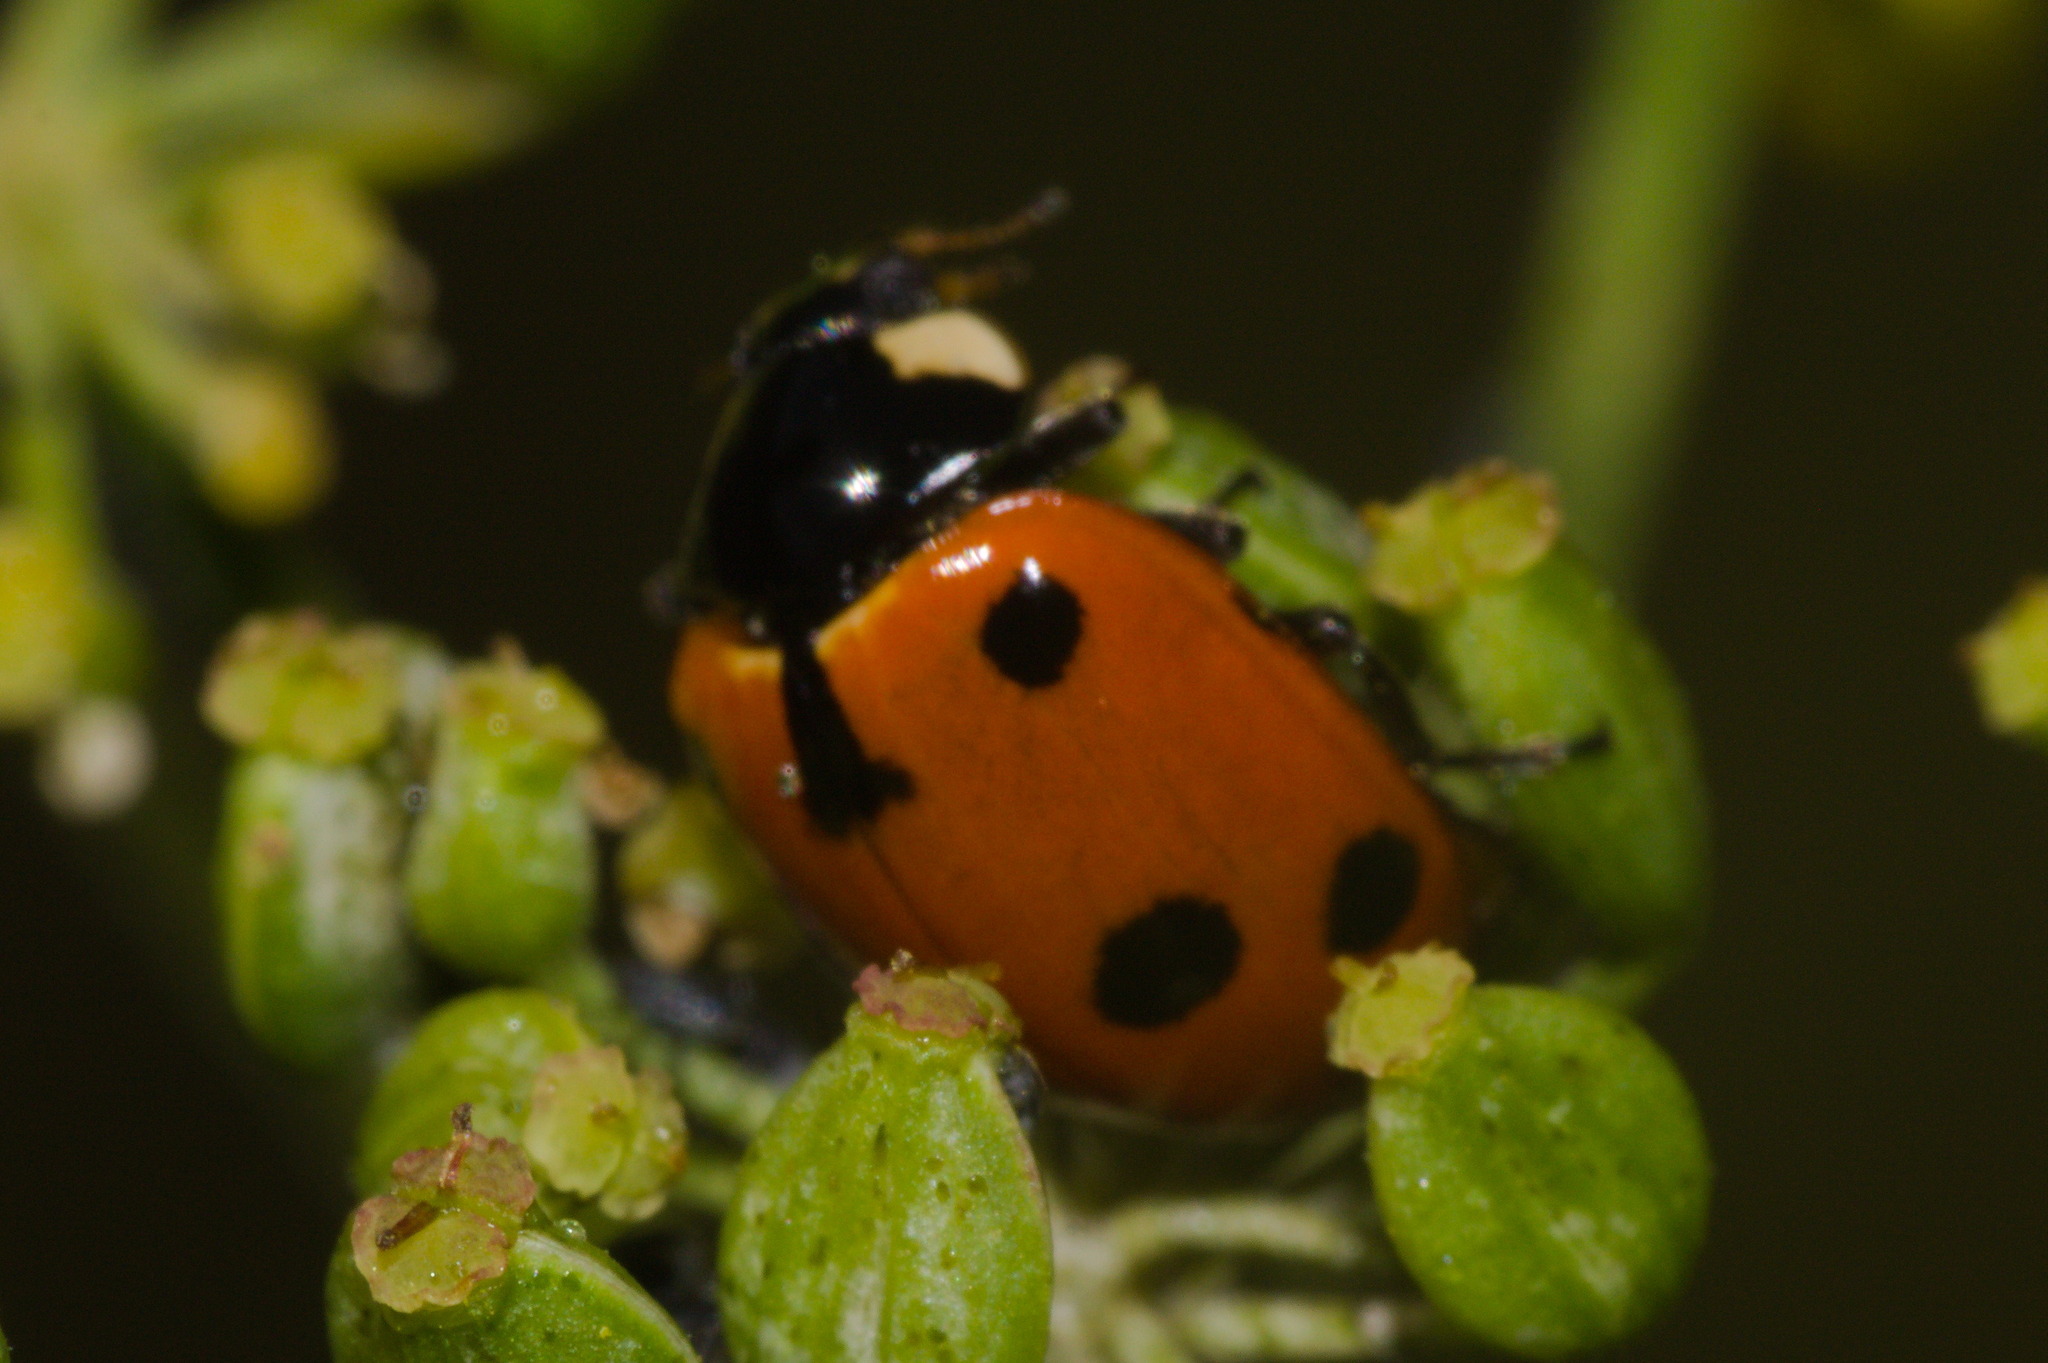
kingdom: Animalia
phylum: Arthropoda
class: Insecta
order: Coleoptera
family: Coccinellidae
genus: Ceratomegilla
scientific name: Ceratomegilla undecimnotata
